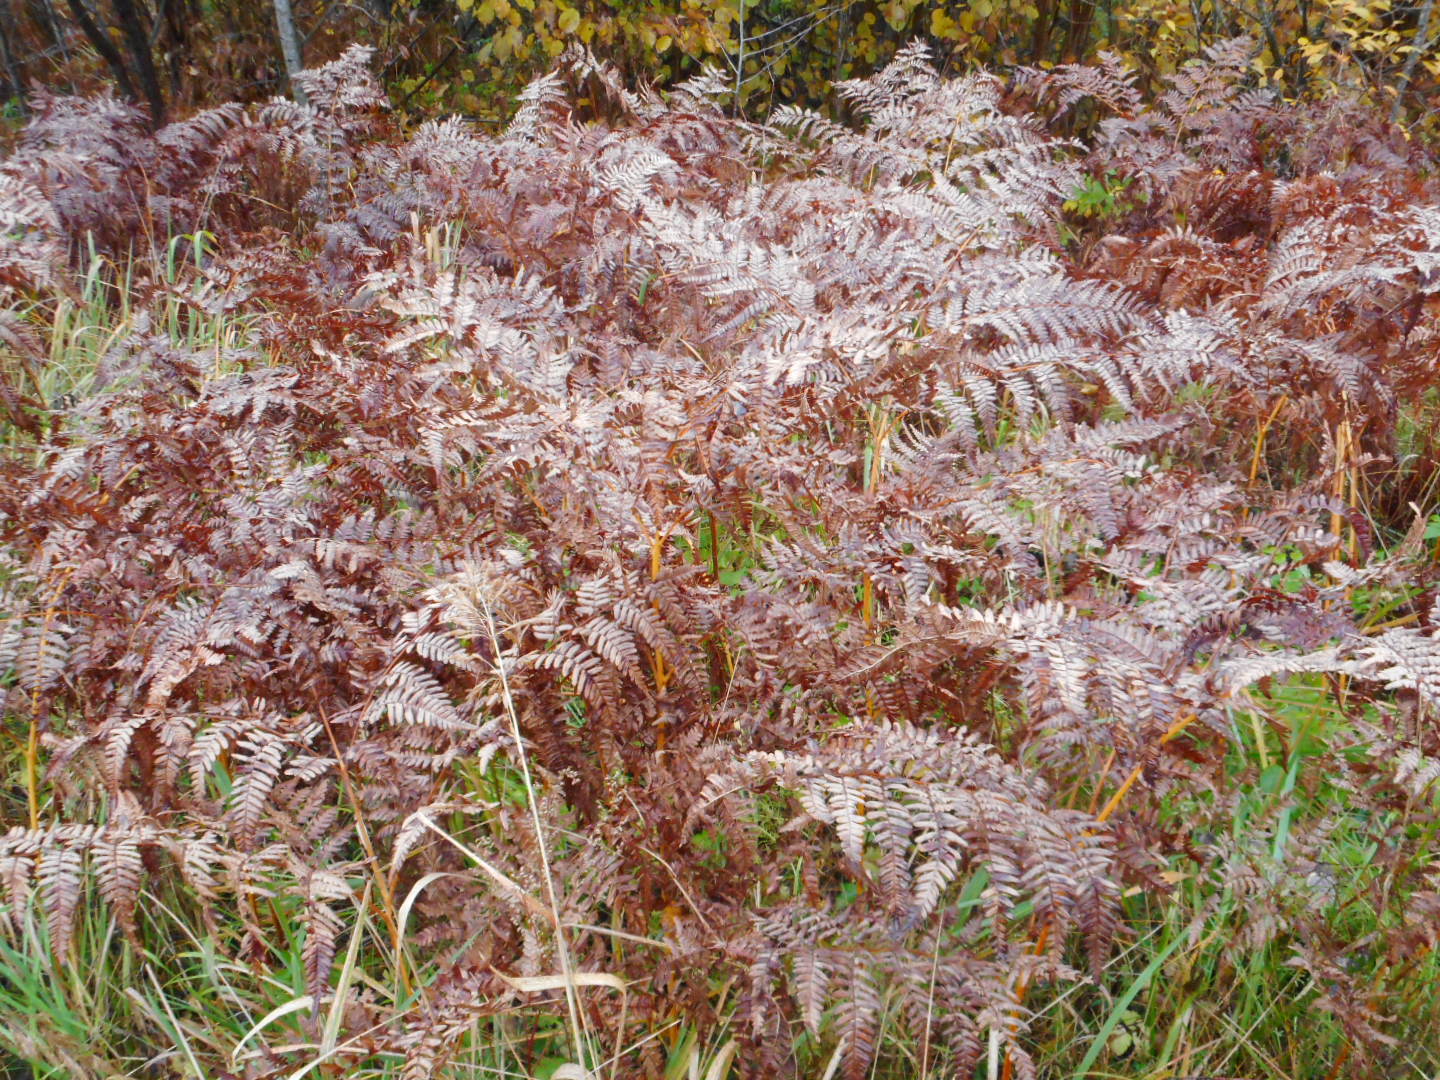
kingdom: Plantae
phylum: Tracheophyta
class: Polypodiopsida
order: Polypodiales
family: Dennstaedtiaceae
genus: Pteridium
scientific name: Pteridium aquilinum
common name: Bracken
